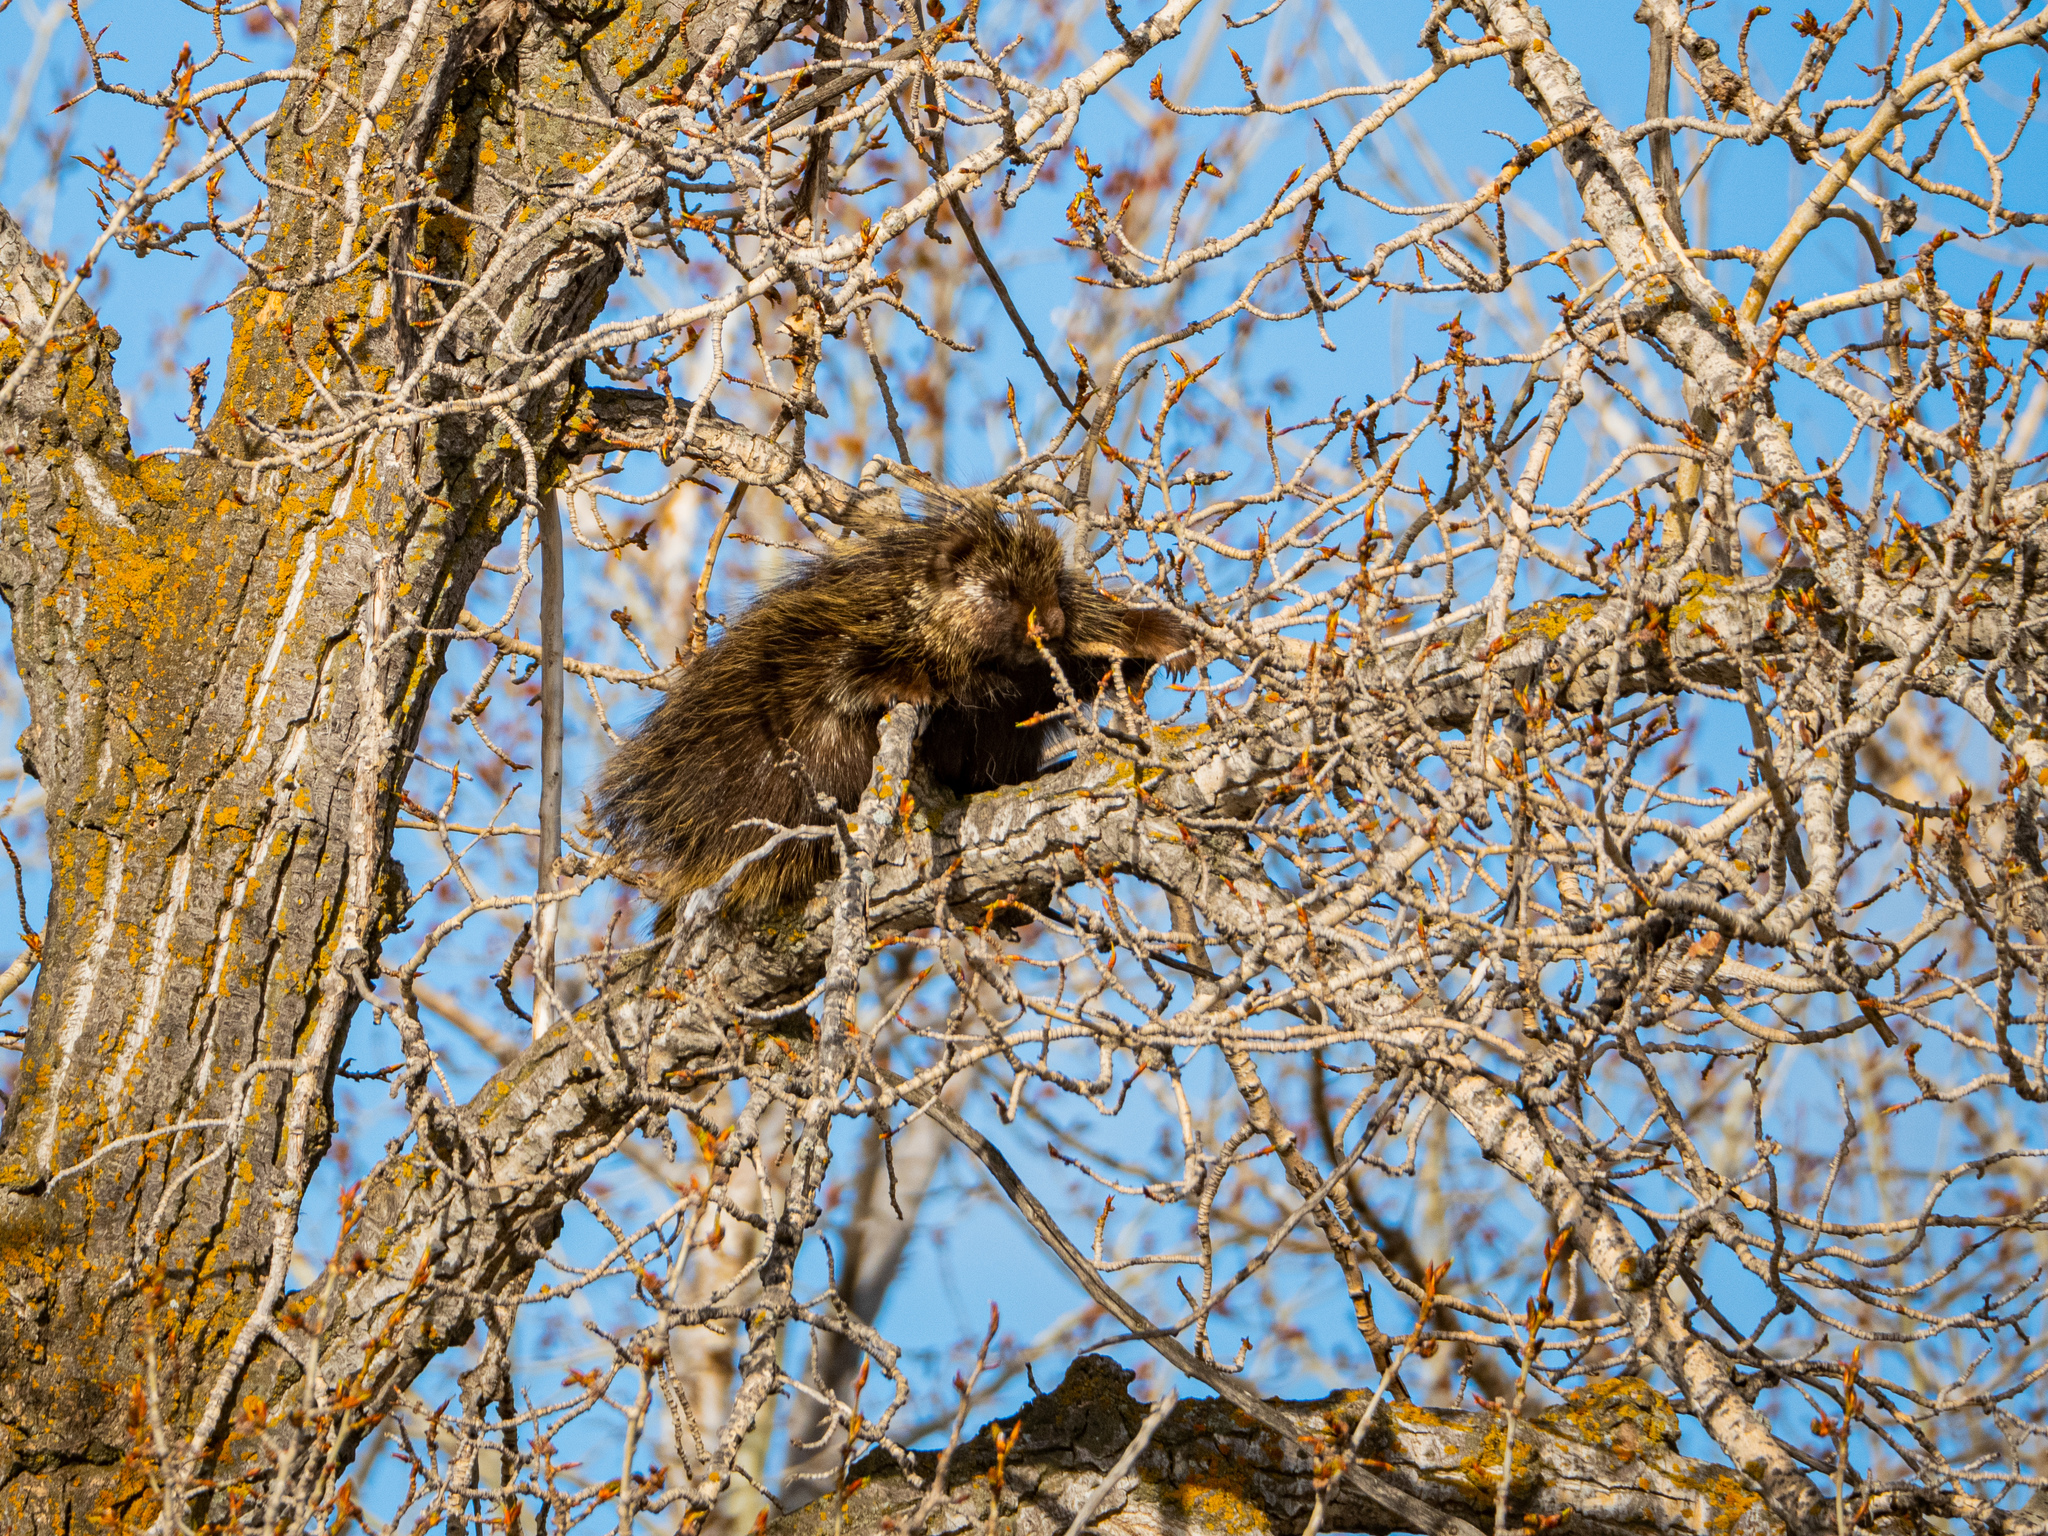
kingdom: Animalia
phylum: Chordata
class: Mammalia
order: Rodentia
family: Erethizontidae
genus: Erethizon
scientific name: Erethizon dorsatus
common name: North american porcupine
